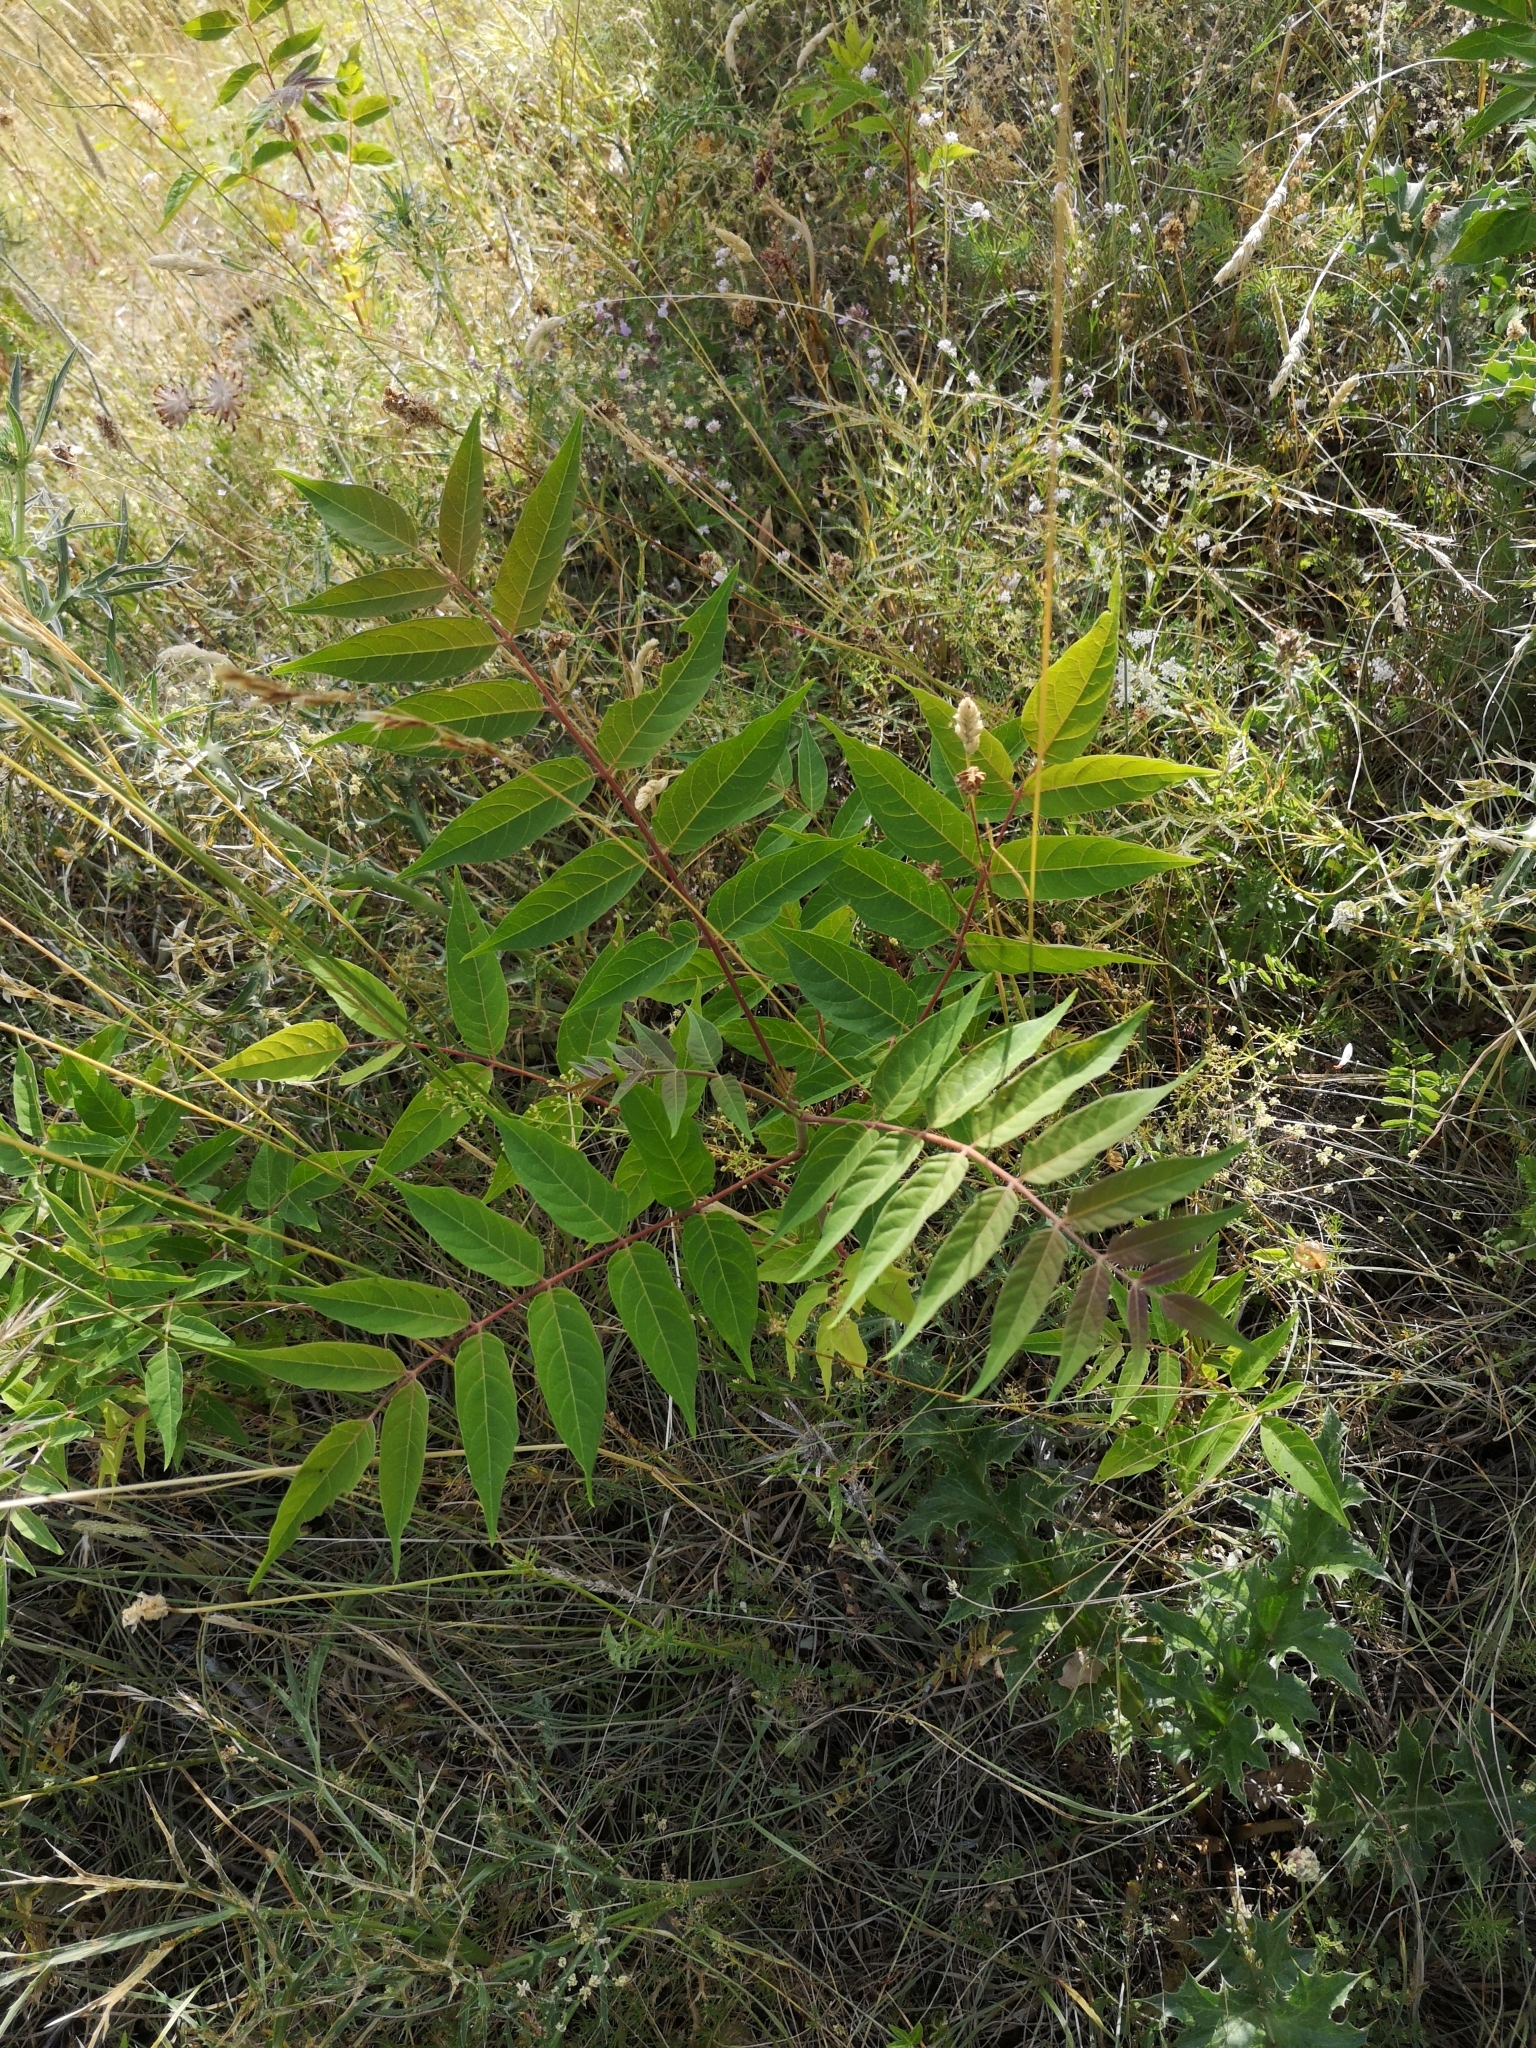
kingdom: Plantae
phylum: Tracheophyta
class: Magnoliopsida
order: Sapindales
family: Simaroubaceae
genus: Ailanthus
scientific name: Ailanthus altissima
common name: Tree-of-heaven
